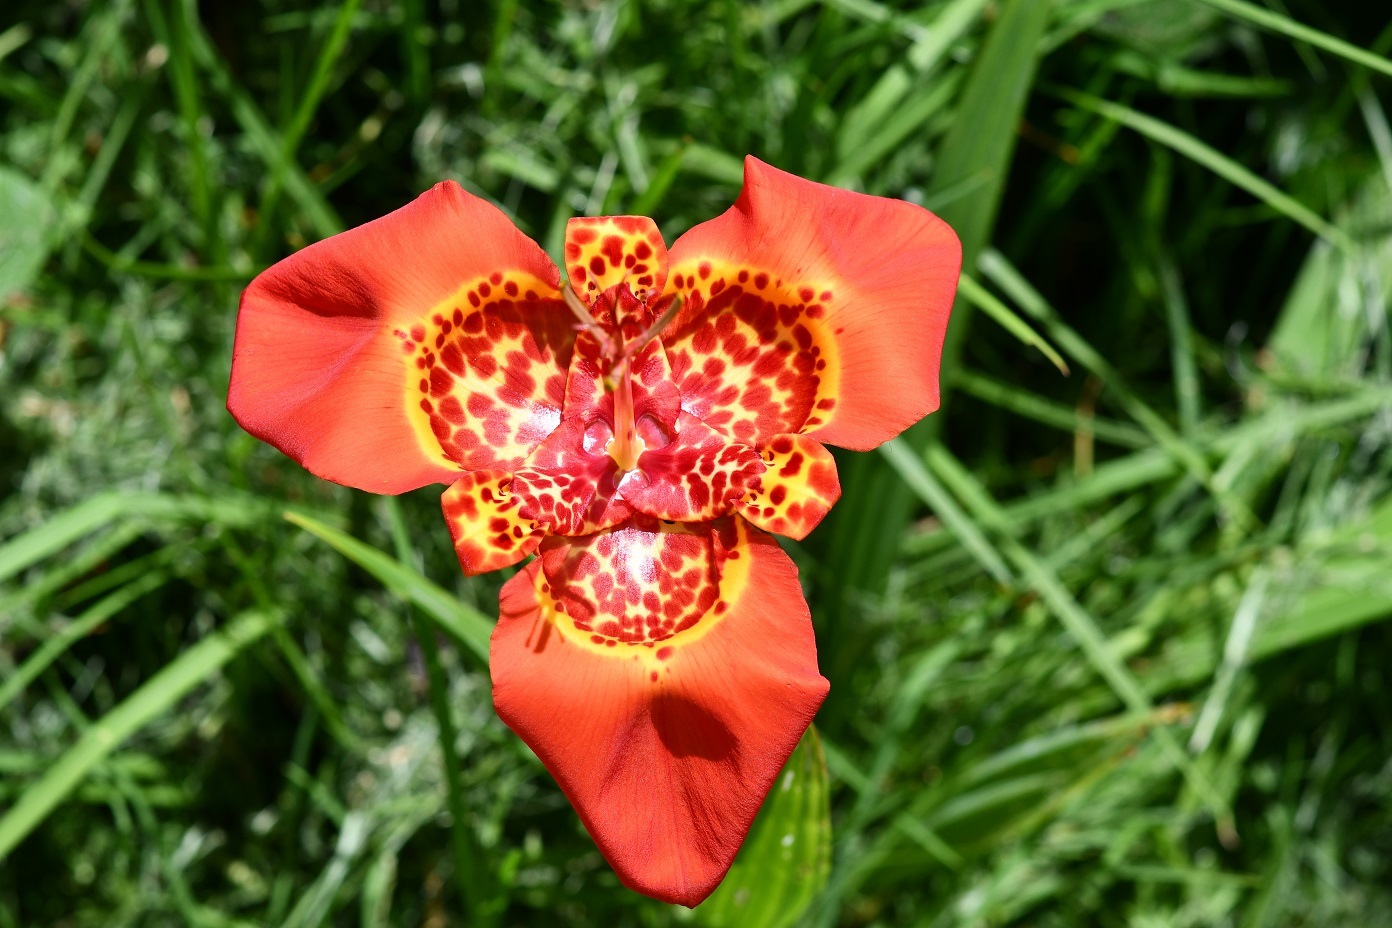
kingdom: Plantae
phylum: Tracheophyta
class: Liliopsida
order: Asparagales
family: Iridaceae
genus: Tigridia
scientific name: Tigridia pavonia
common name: Peacock-flower
